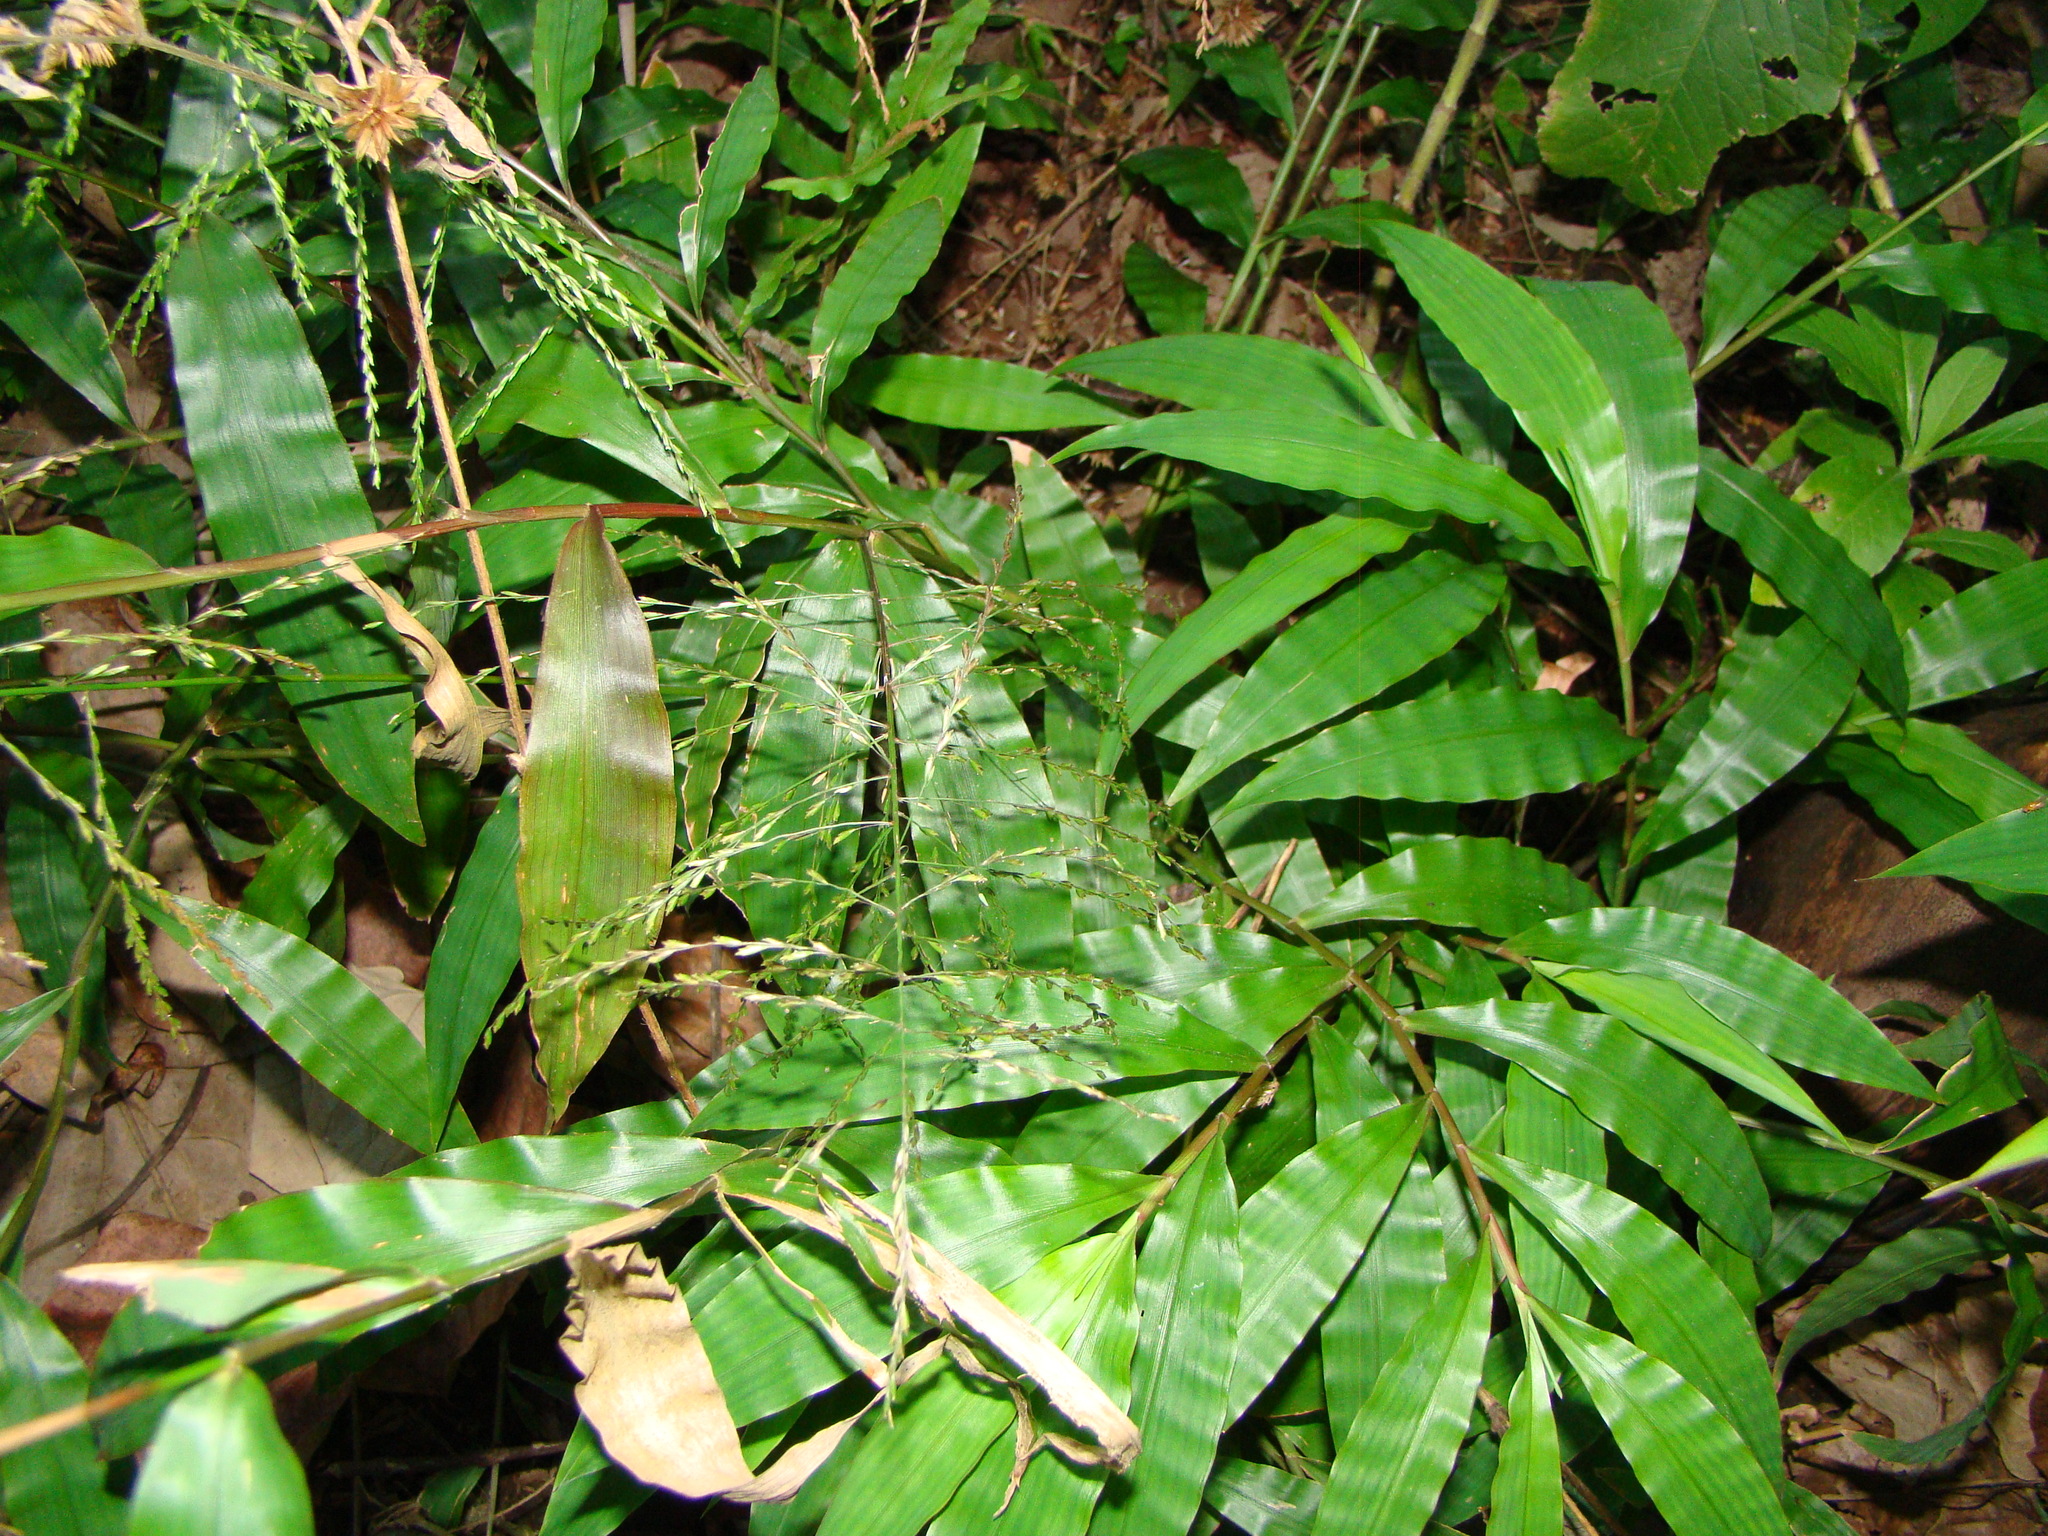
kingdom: Plantae
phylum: Tracheophyta
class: Liliopsida
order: Poales
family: Poaceae
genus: Centotheca
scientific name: Centotheca lappacea
